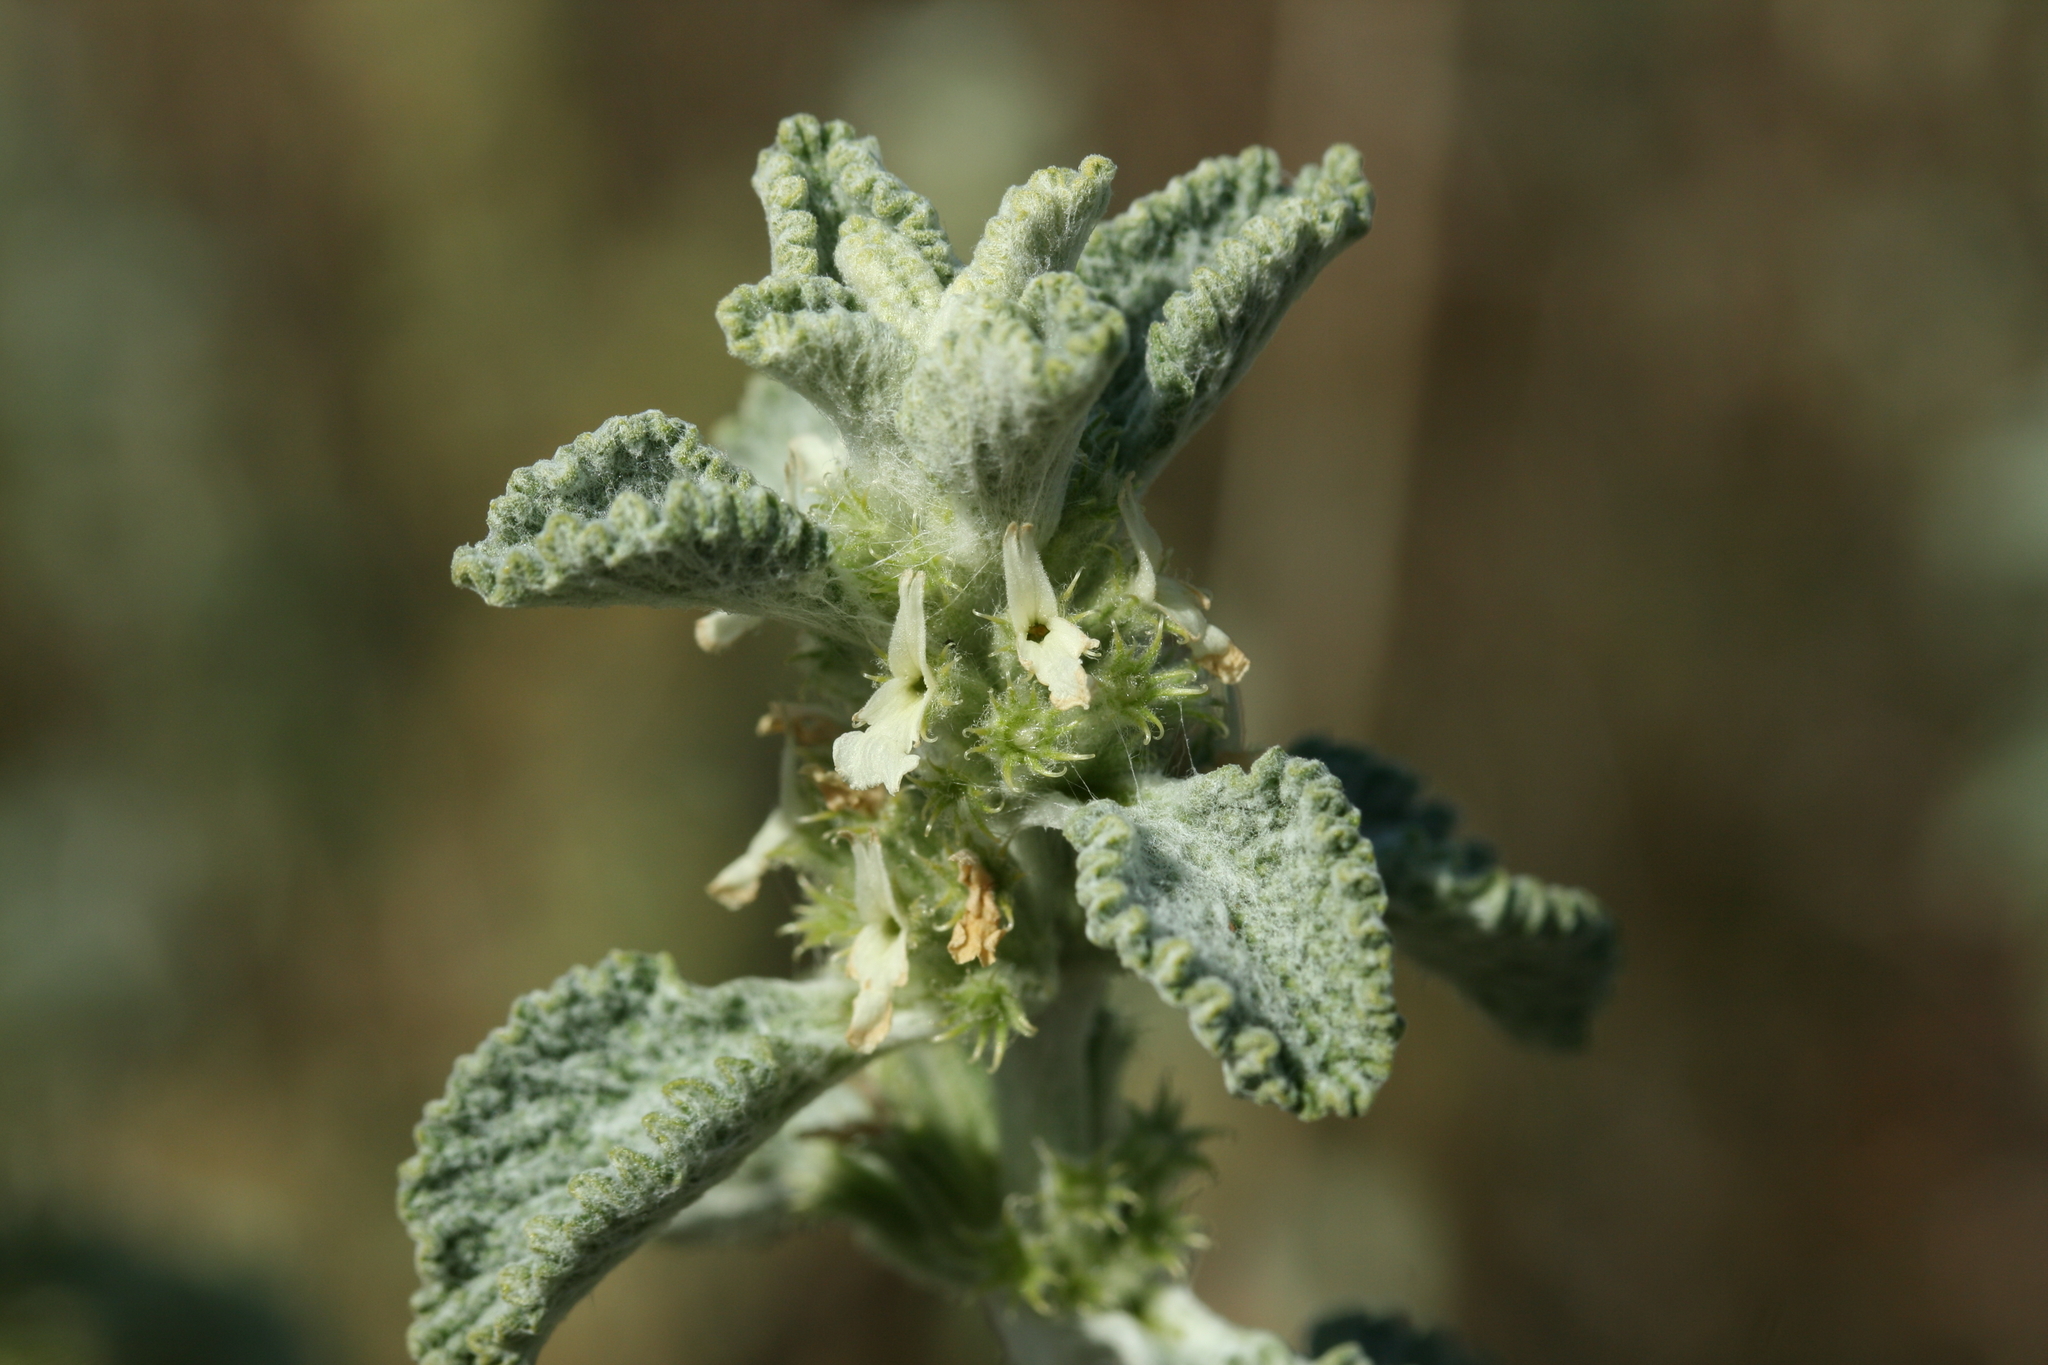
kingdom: Plantae
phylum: Tracheophyta
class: Magnoliopsida
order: Lamiales
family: Lamiaceae
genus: Marrubium
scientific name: Marrubium vulgare
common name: Horehound
